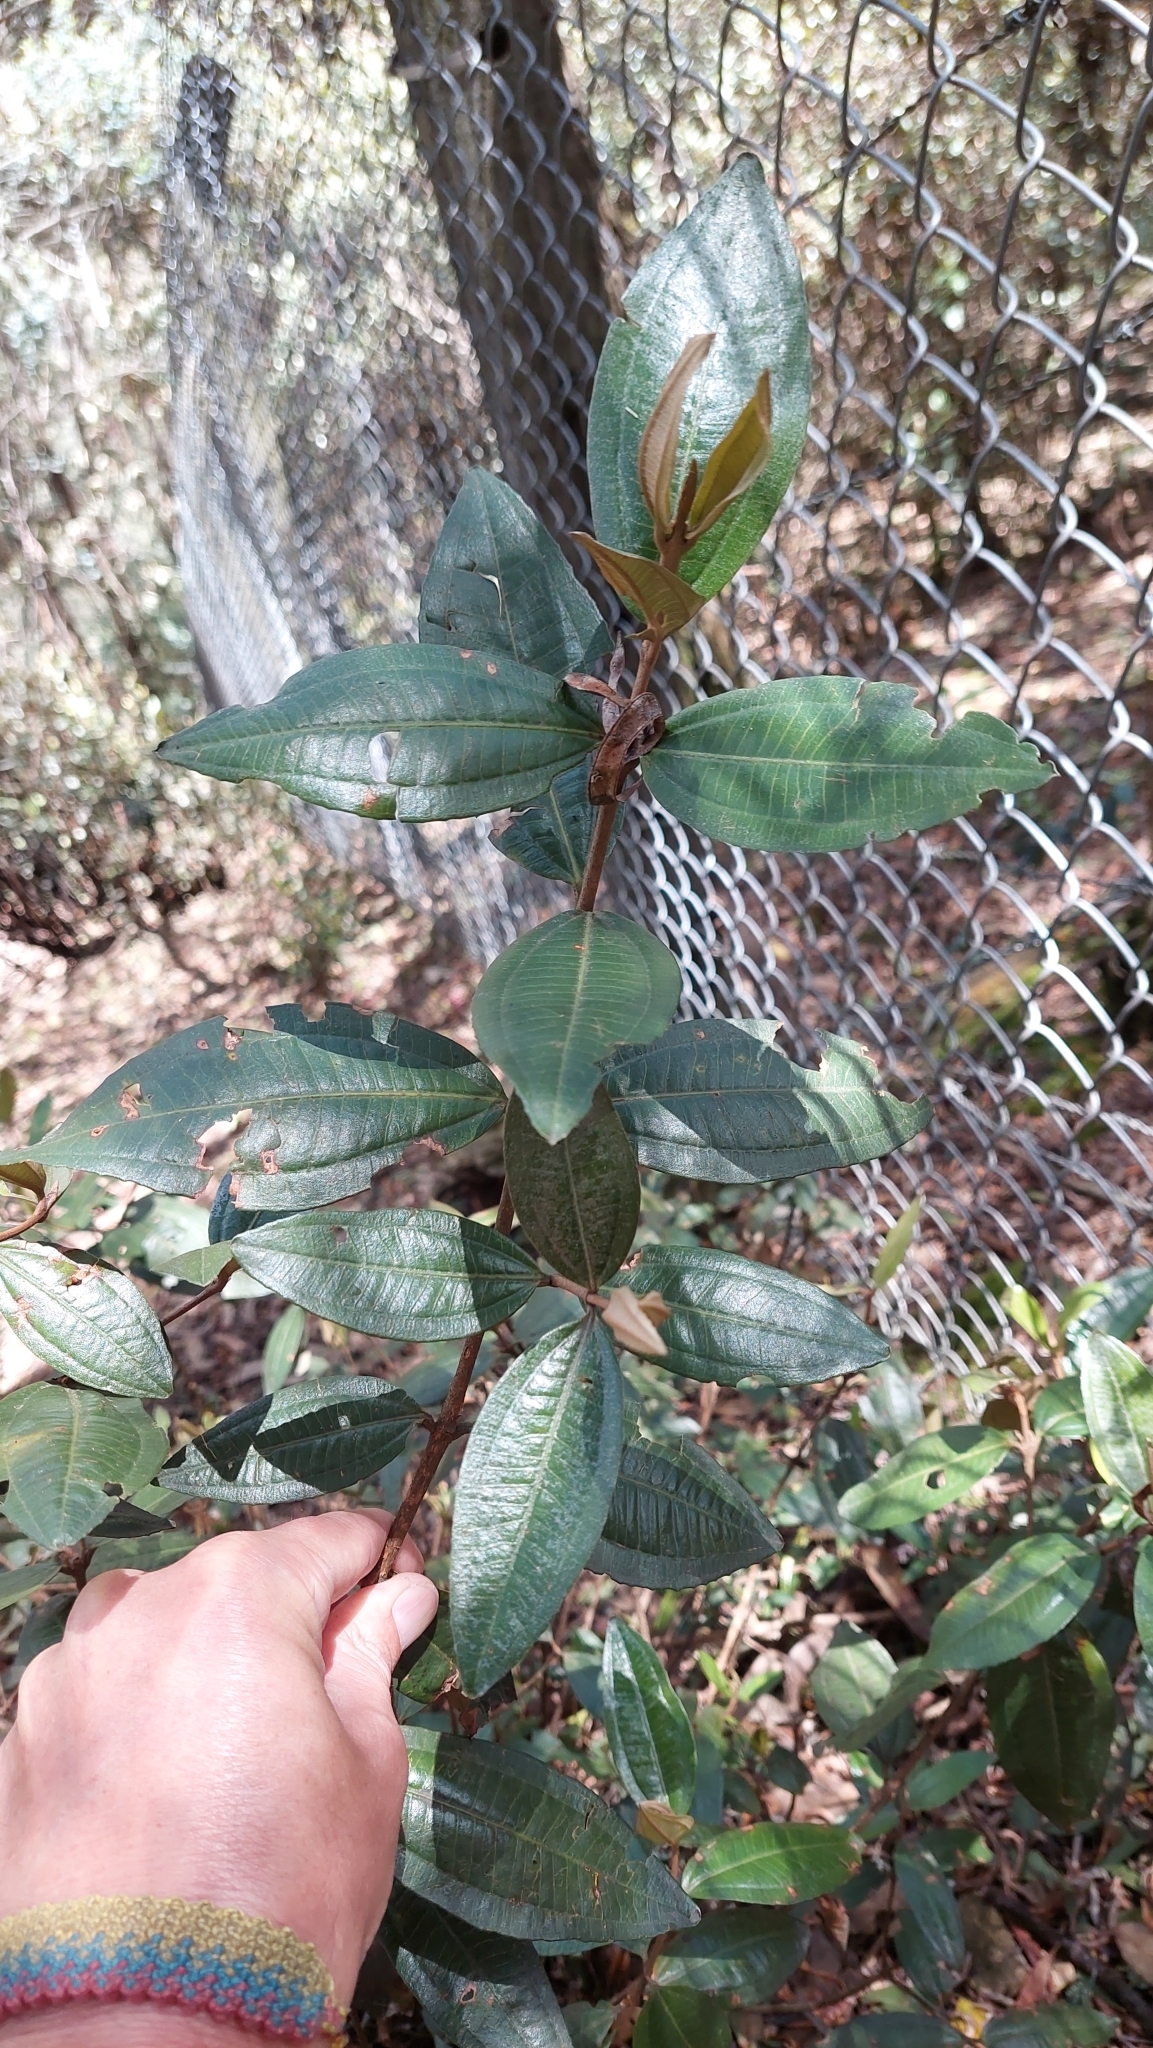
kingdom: Plantae
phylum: Tracheophyta
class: Magnoliopsida
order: Myrtales
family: Melastomataceae
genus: Miconia
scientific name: Miconia squamulosa
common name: Squamulose maya
